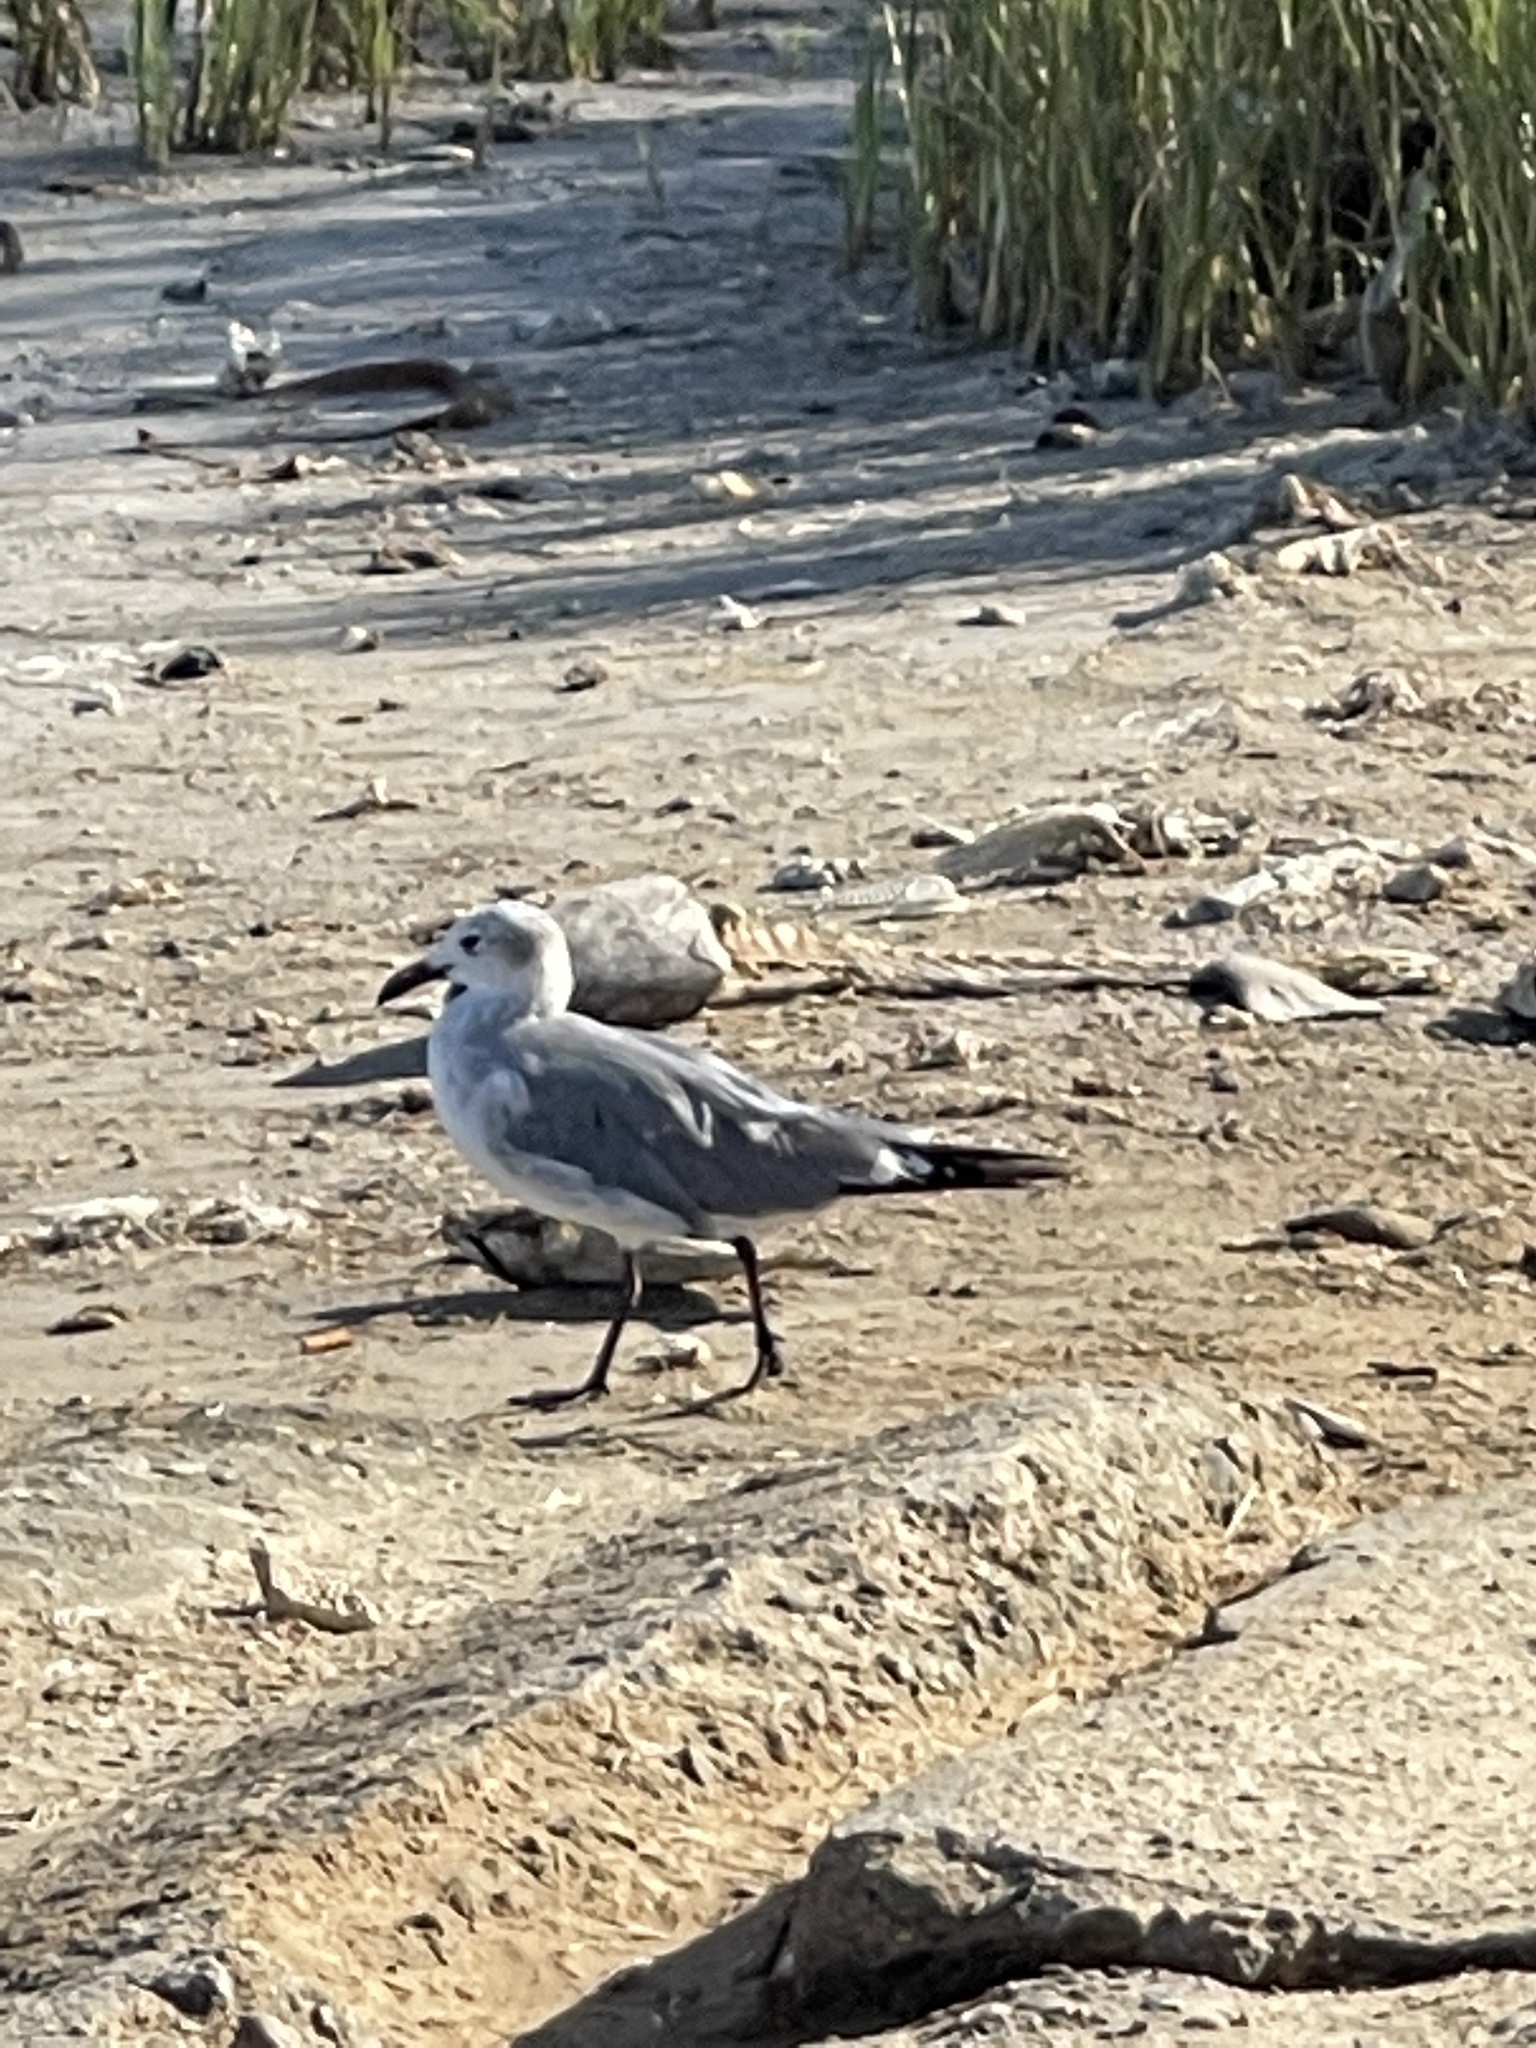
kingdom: Animalia
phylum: Chordata
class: Aves
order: Charadriiformes
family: Laridae
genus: Leucophaeus
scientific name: Leucophaeus atricilla
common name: Laughing gull
